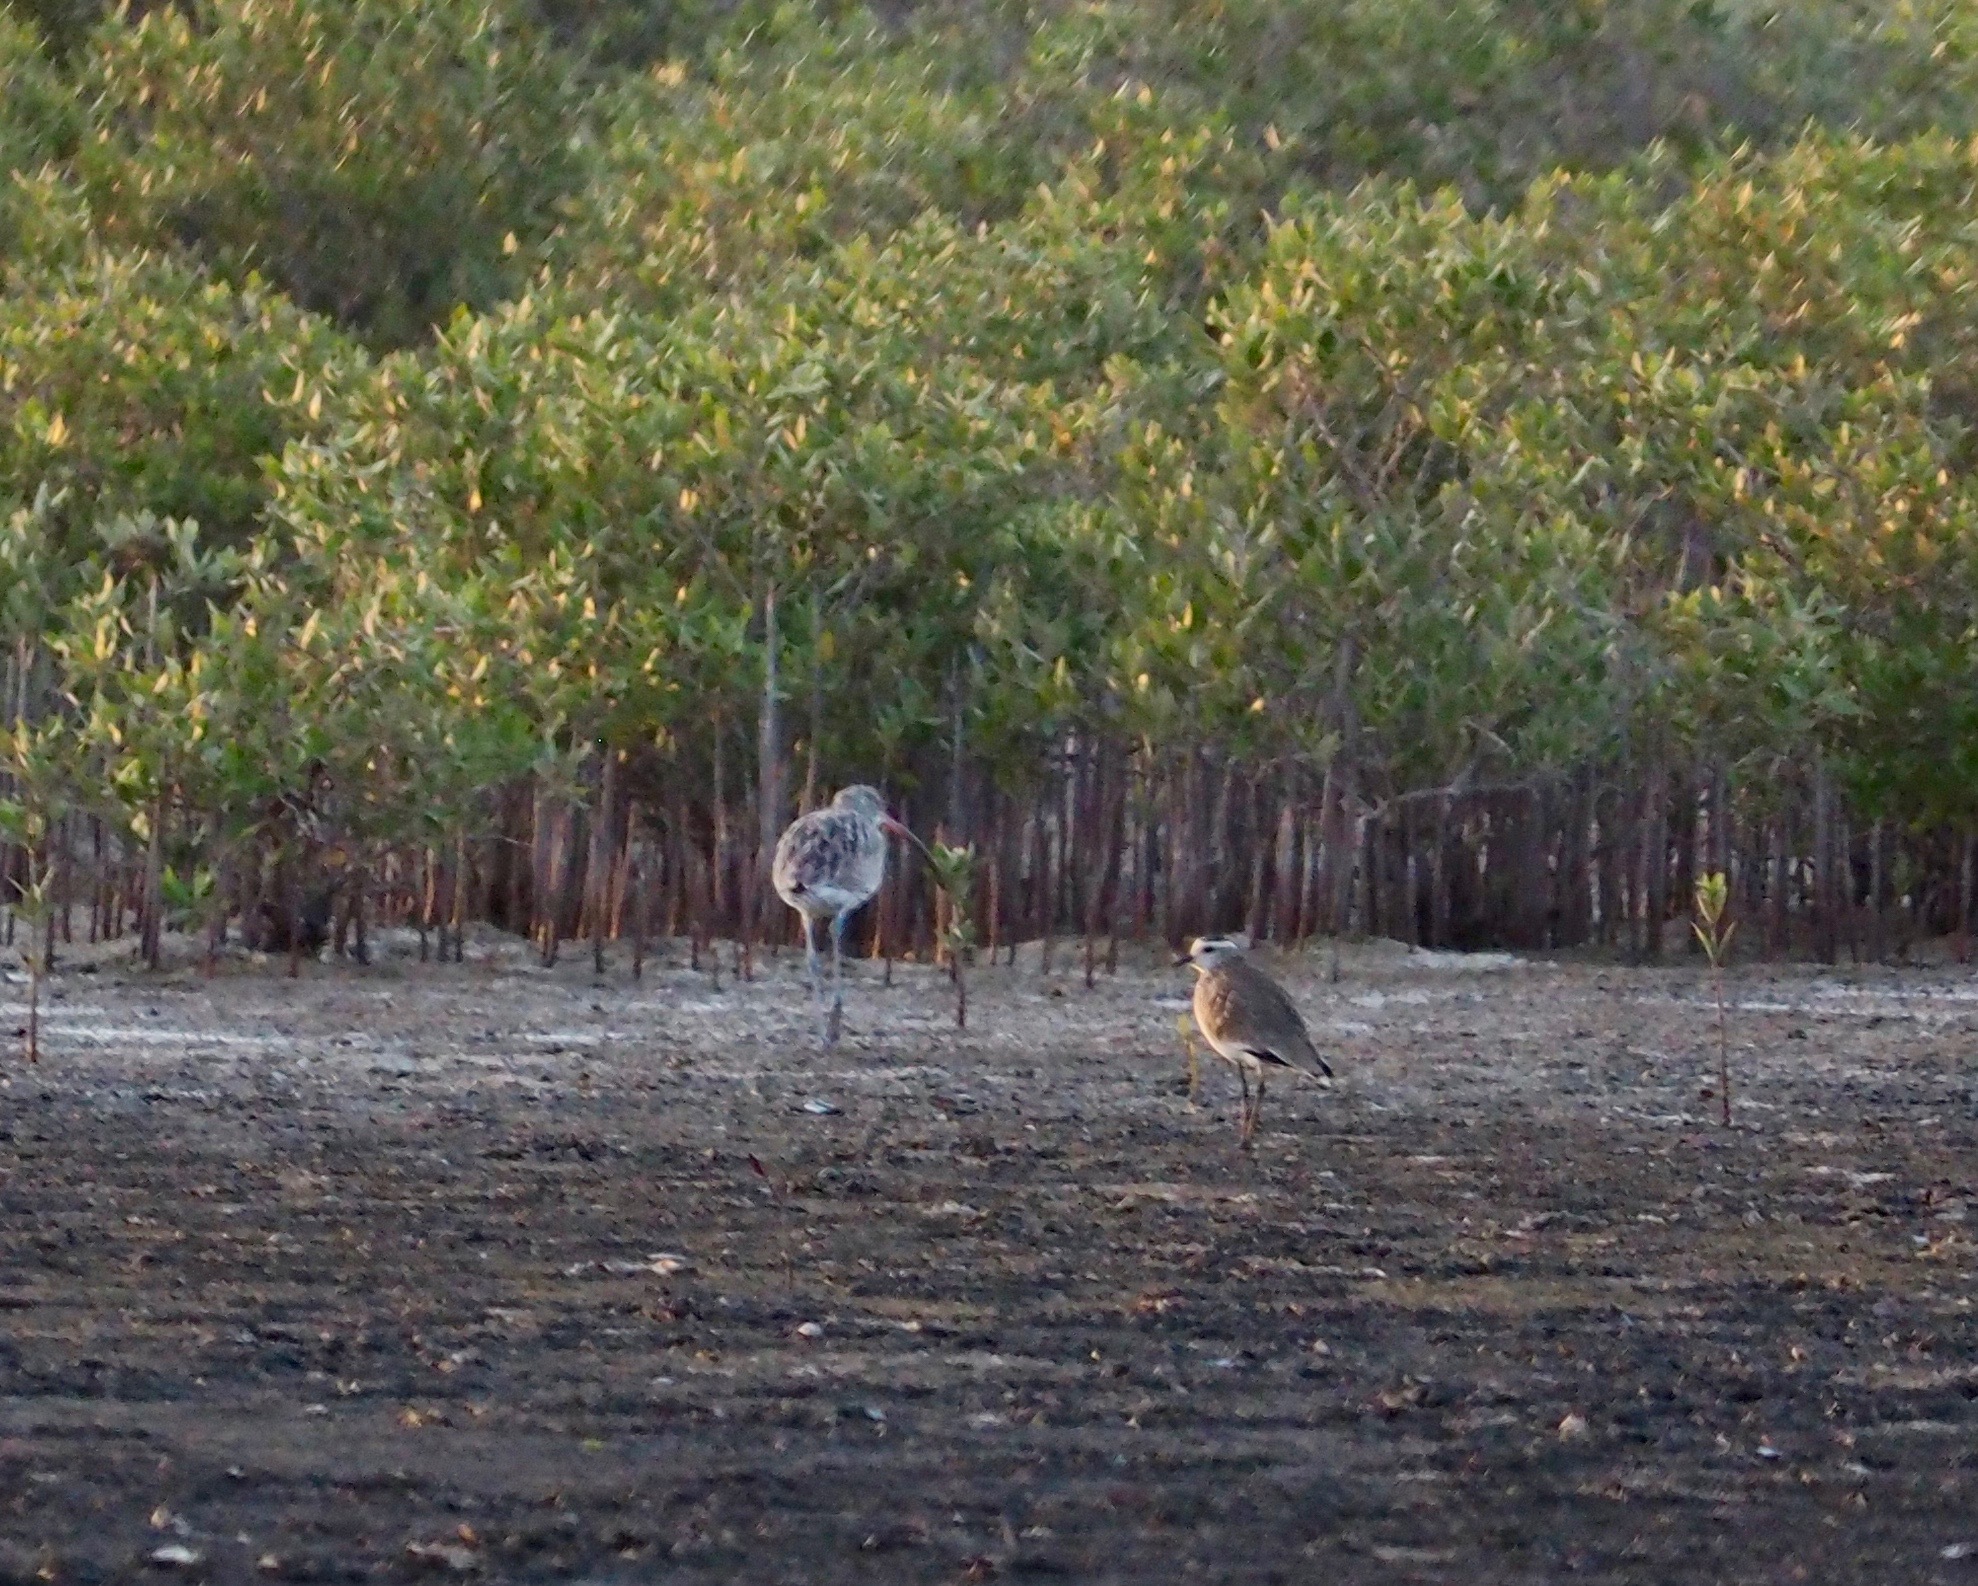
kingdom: Animalia
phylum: Chordata
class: Aves
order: Charadriiformes
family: Charadriidae
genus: Vanellus
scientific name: Vanellus gregarius
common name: Sociable lapwing
